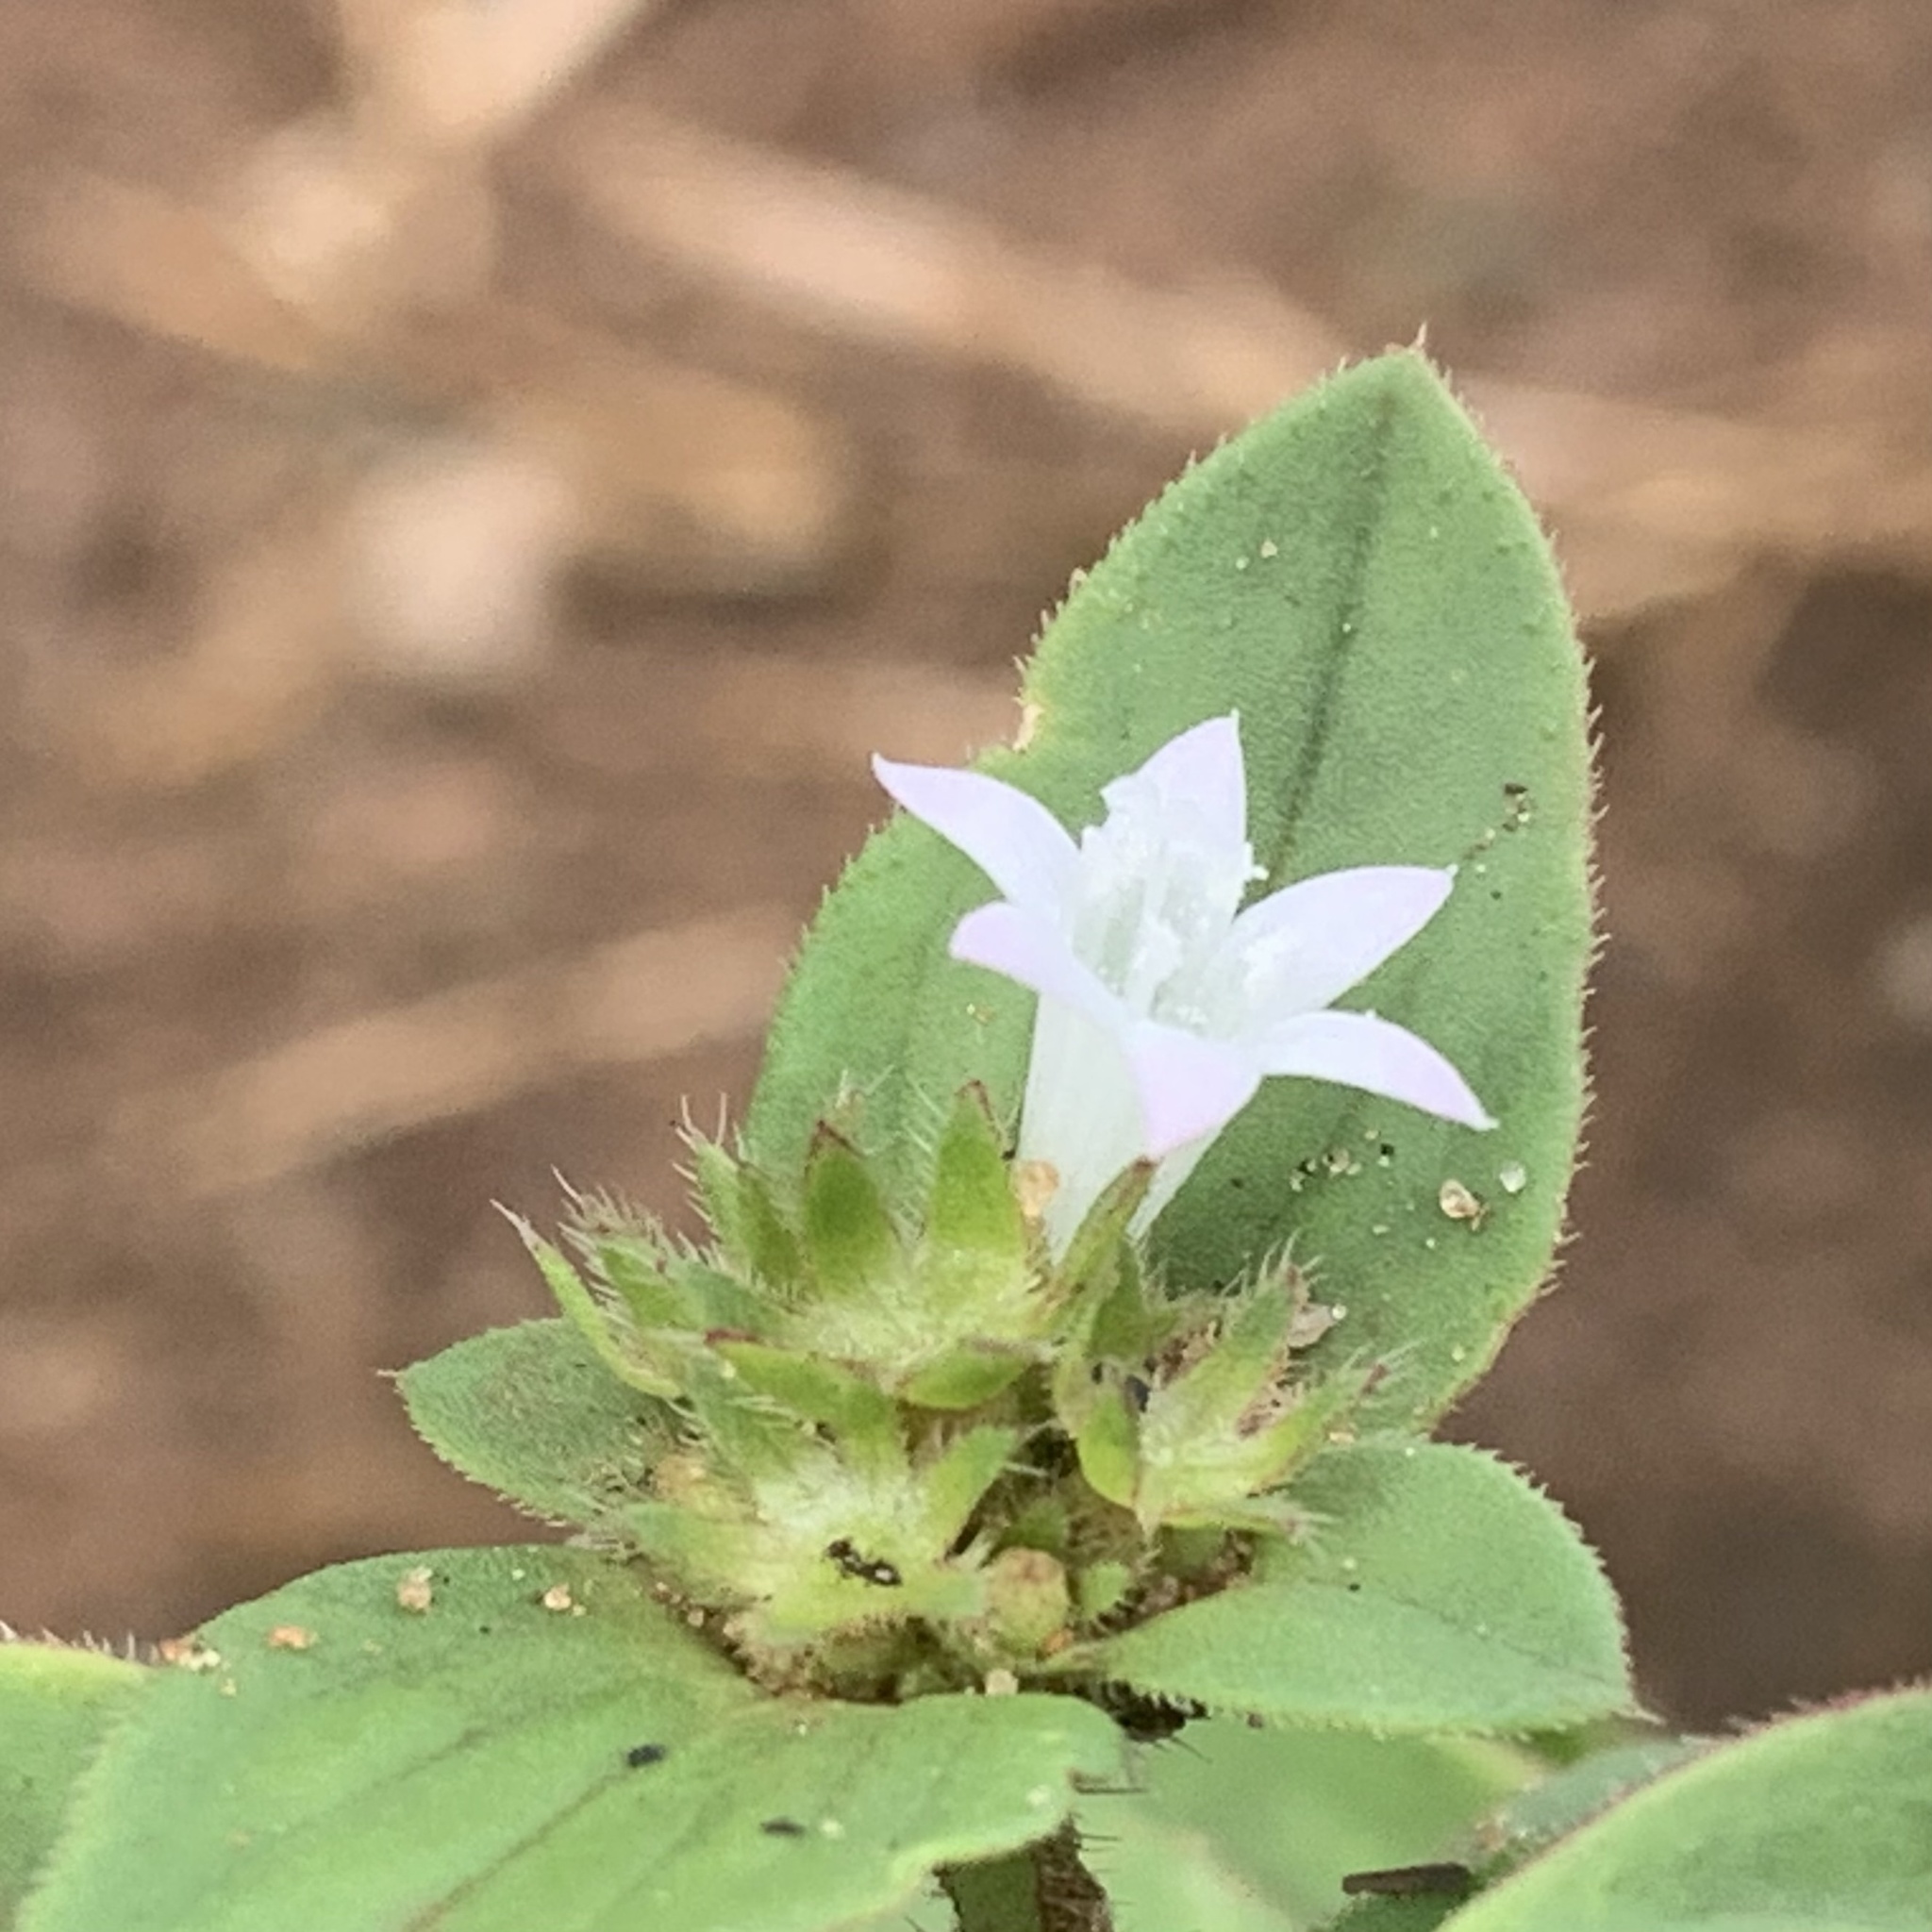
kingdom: Plantae
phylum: Tracheophyta
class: Magnoliopsida
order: Gentianales
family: Rubiaceae
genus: Richardia
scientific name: Richardia brasiliensis
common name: Tropical mexican clover
